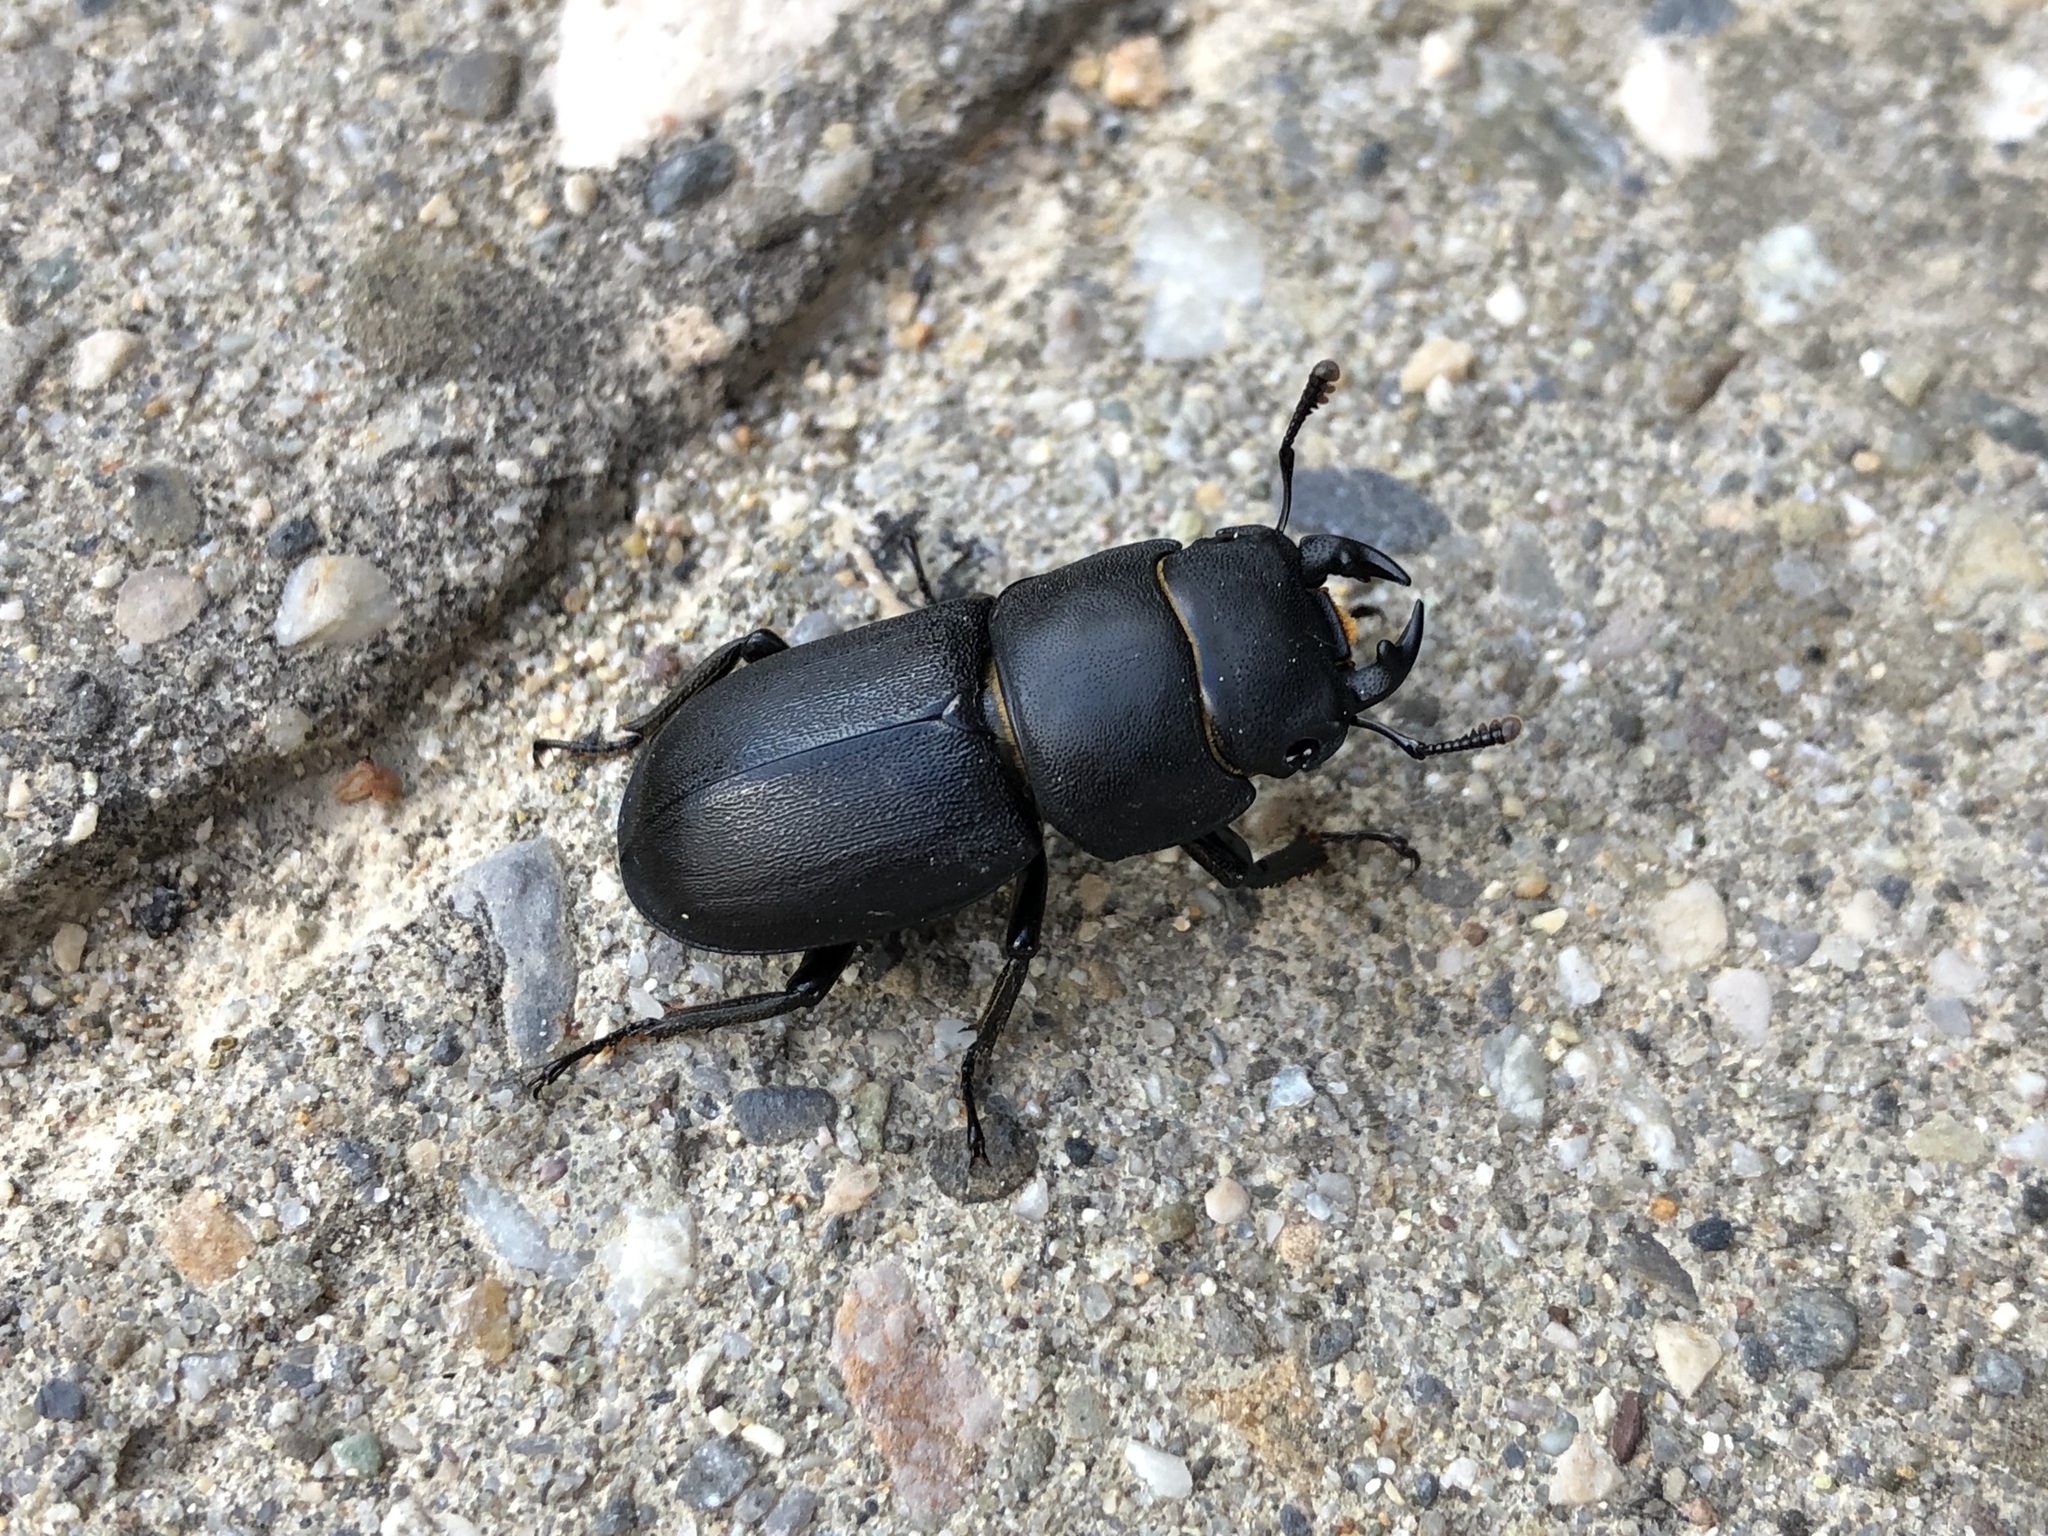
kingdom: Animalia
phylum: Arthropoda
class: Insecta
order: Coleoptera
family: Lucanidae
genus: Dorcus
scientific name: Dorcus parallelipipedus
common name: Lesser stag beetle
